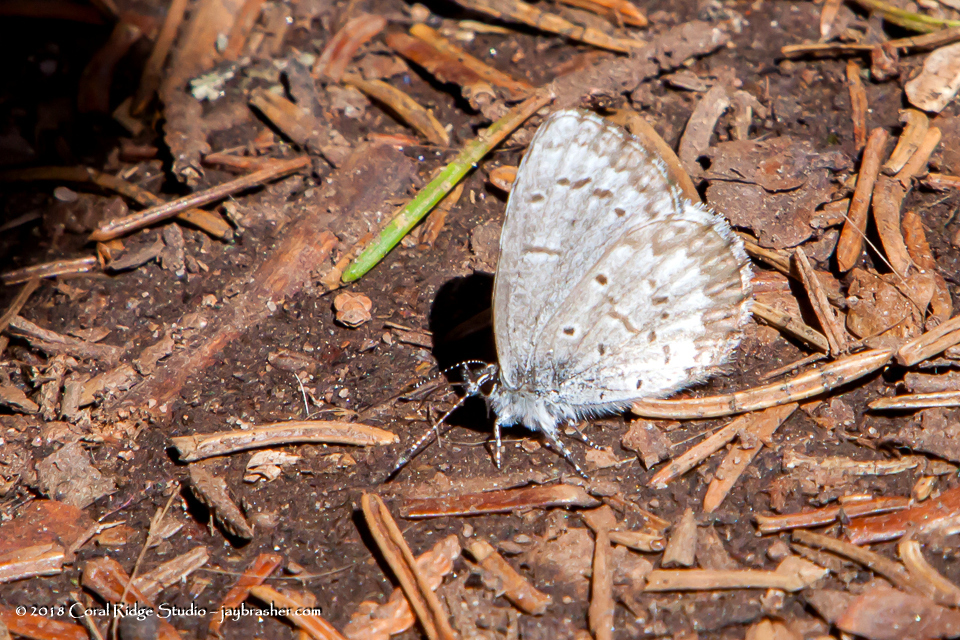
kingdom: Animalia
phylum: Arthropoda
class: Insecta
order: Lepidoptera
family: Lycaenidae
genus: Celastrina
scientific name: Celastrina lucia
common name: Lucia azure
